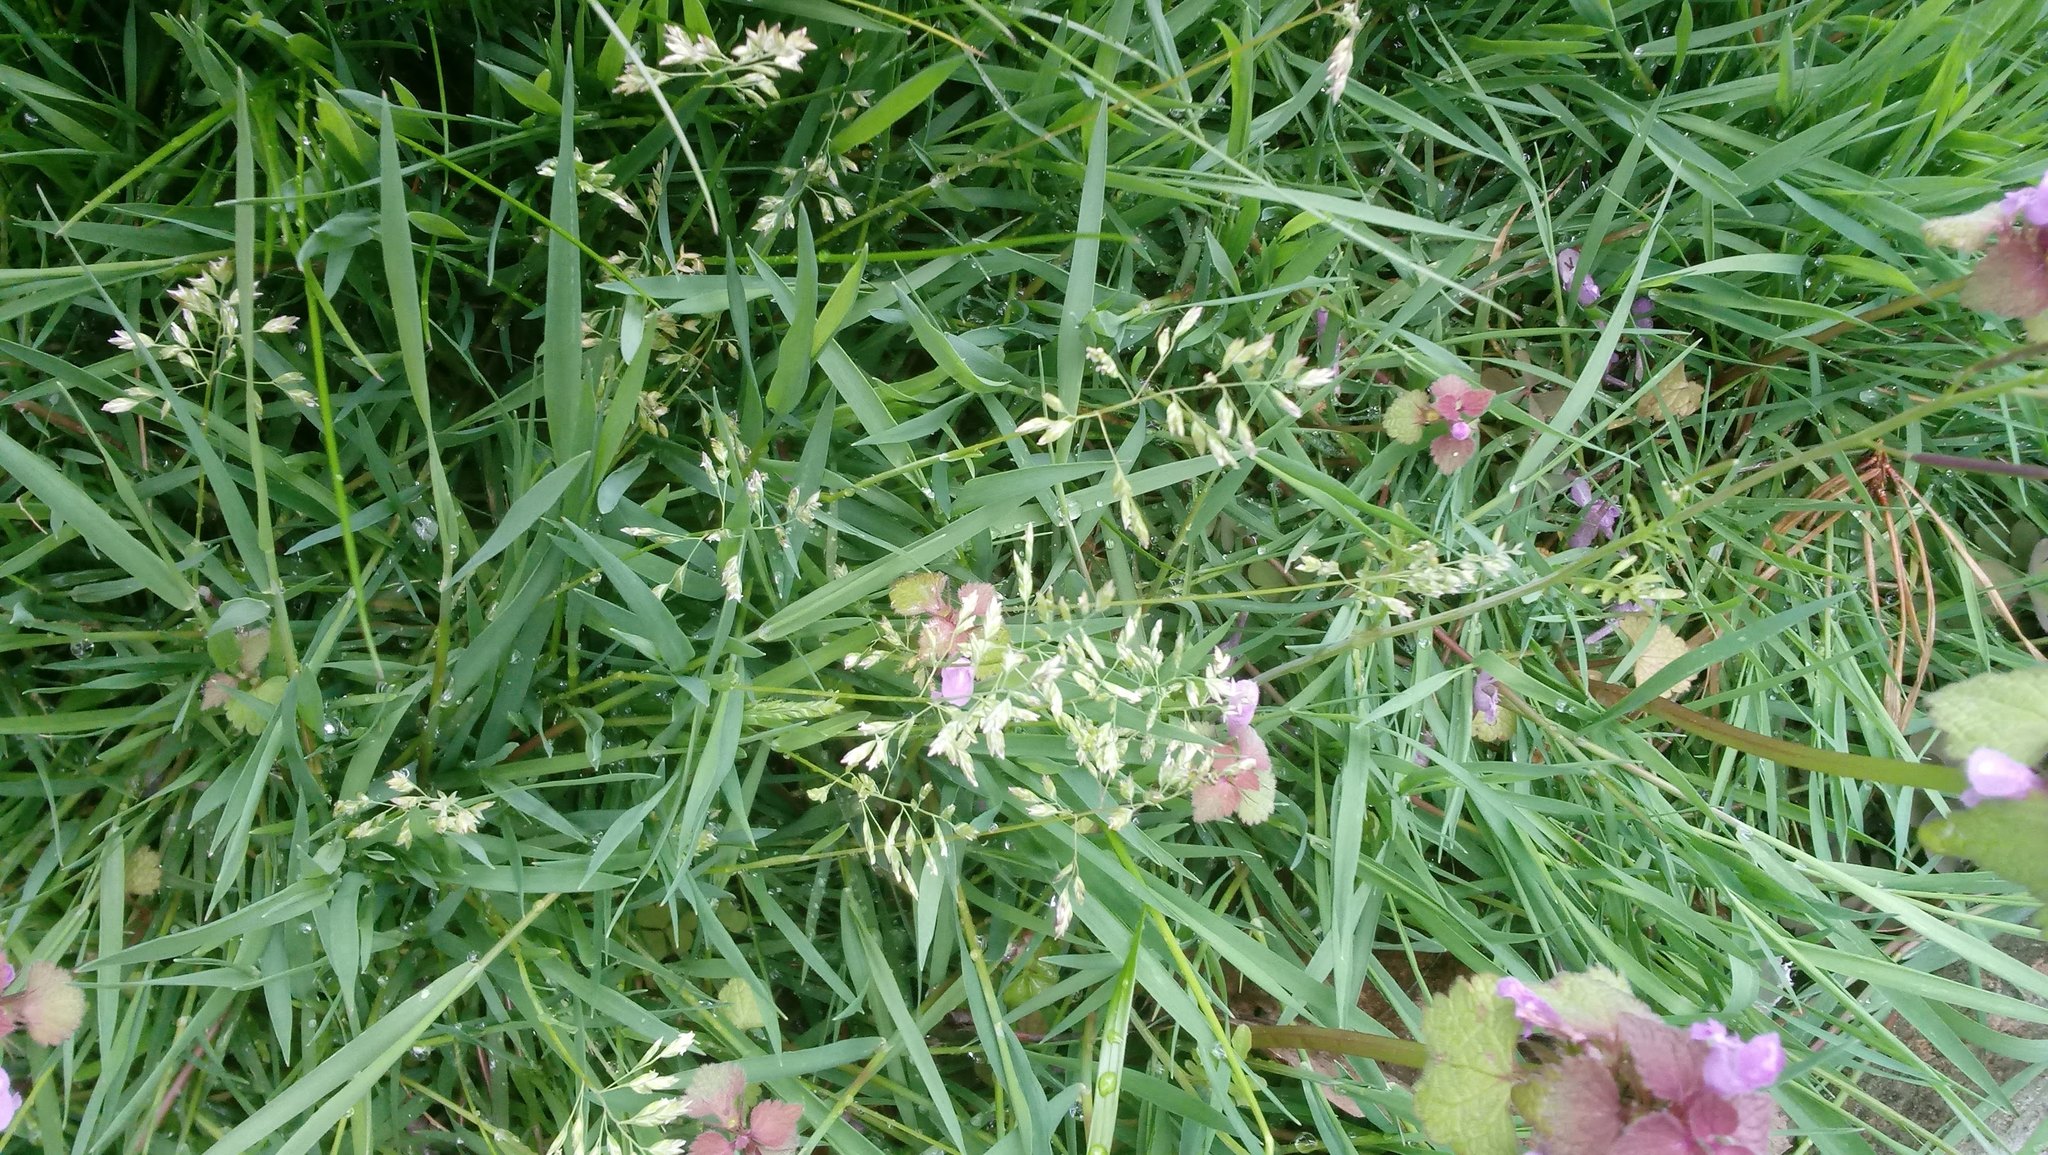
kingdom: Plantae
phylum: Tracheophyta
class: Liliopsida
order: Poales
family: Poaceae
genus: Poa
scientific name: Poa annua
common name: Annual bluegrass
